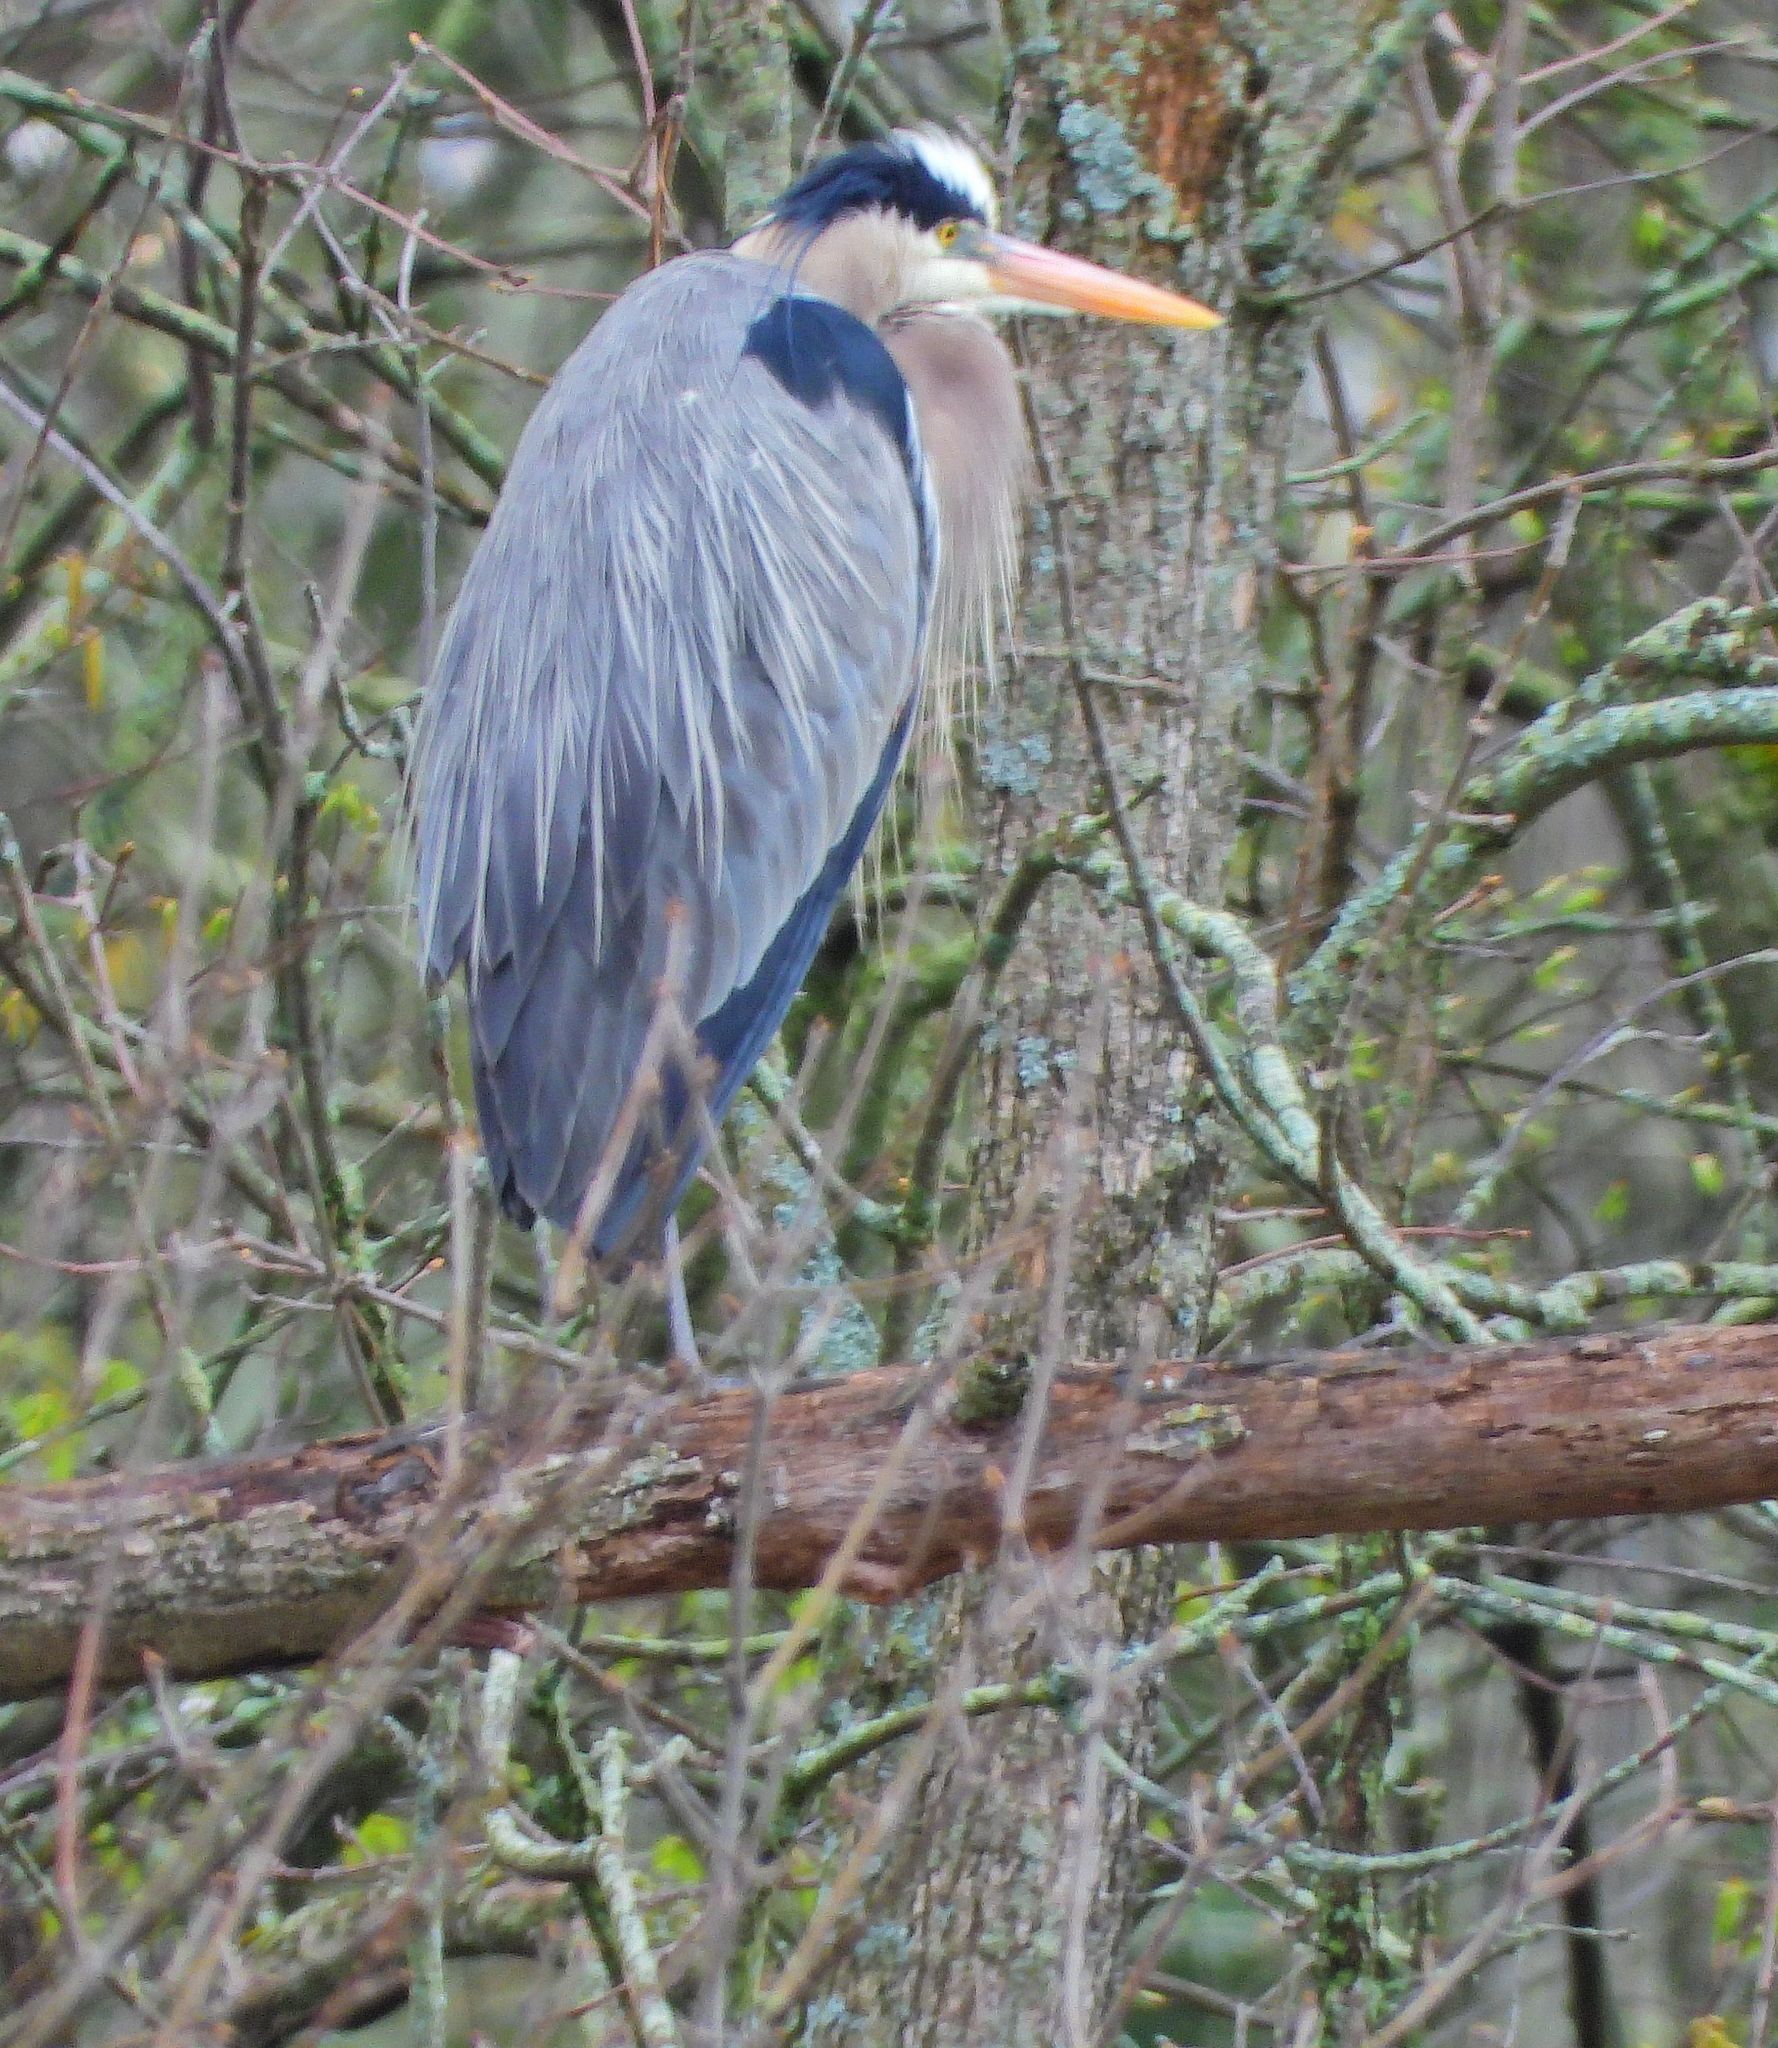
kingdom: Animalia
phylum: Chordata
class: Aves
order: Pelecaniformes
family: Ardeidae
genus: Ardea
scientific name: Ardea herodias
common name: Great blue heron
